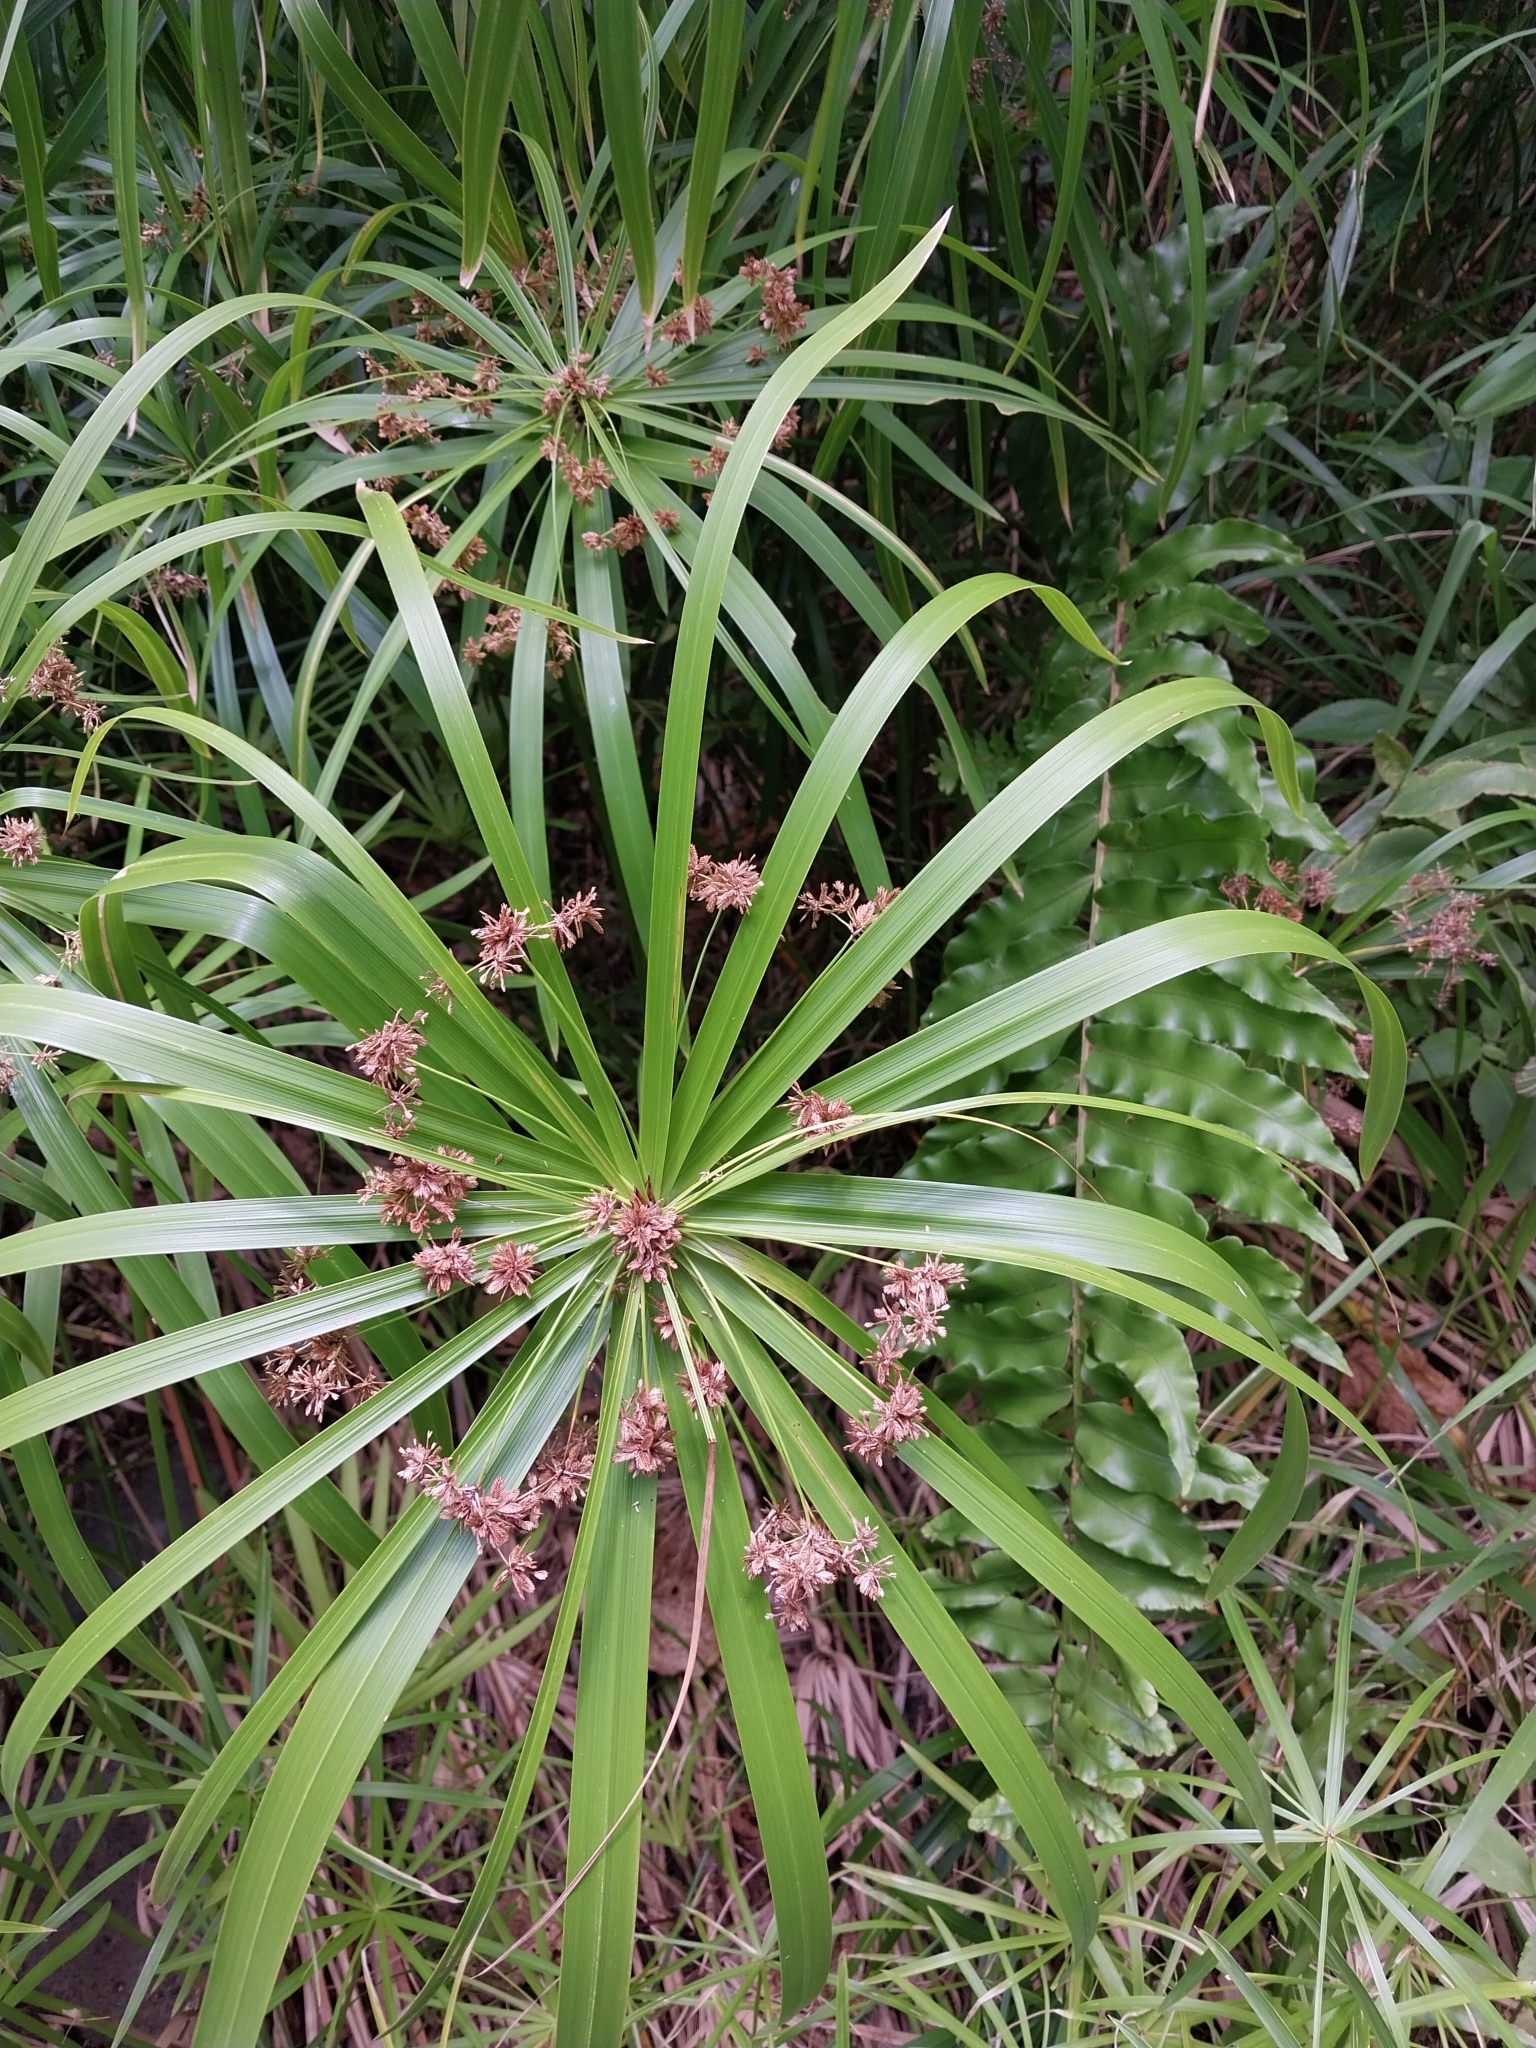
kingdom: Plantae
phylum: Tracheophyta
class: Liliopsida
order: Poales
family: Cyperaceae
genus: Cyperus
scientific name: Cyperus alternifolius
